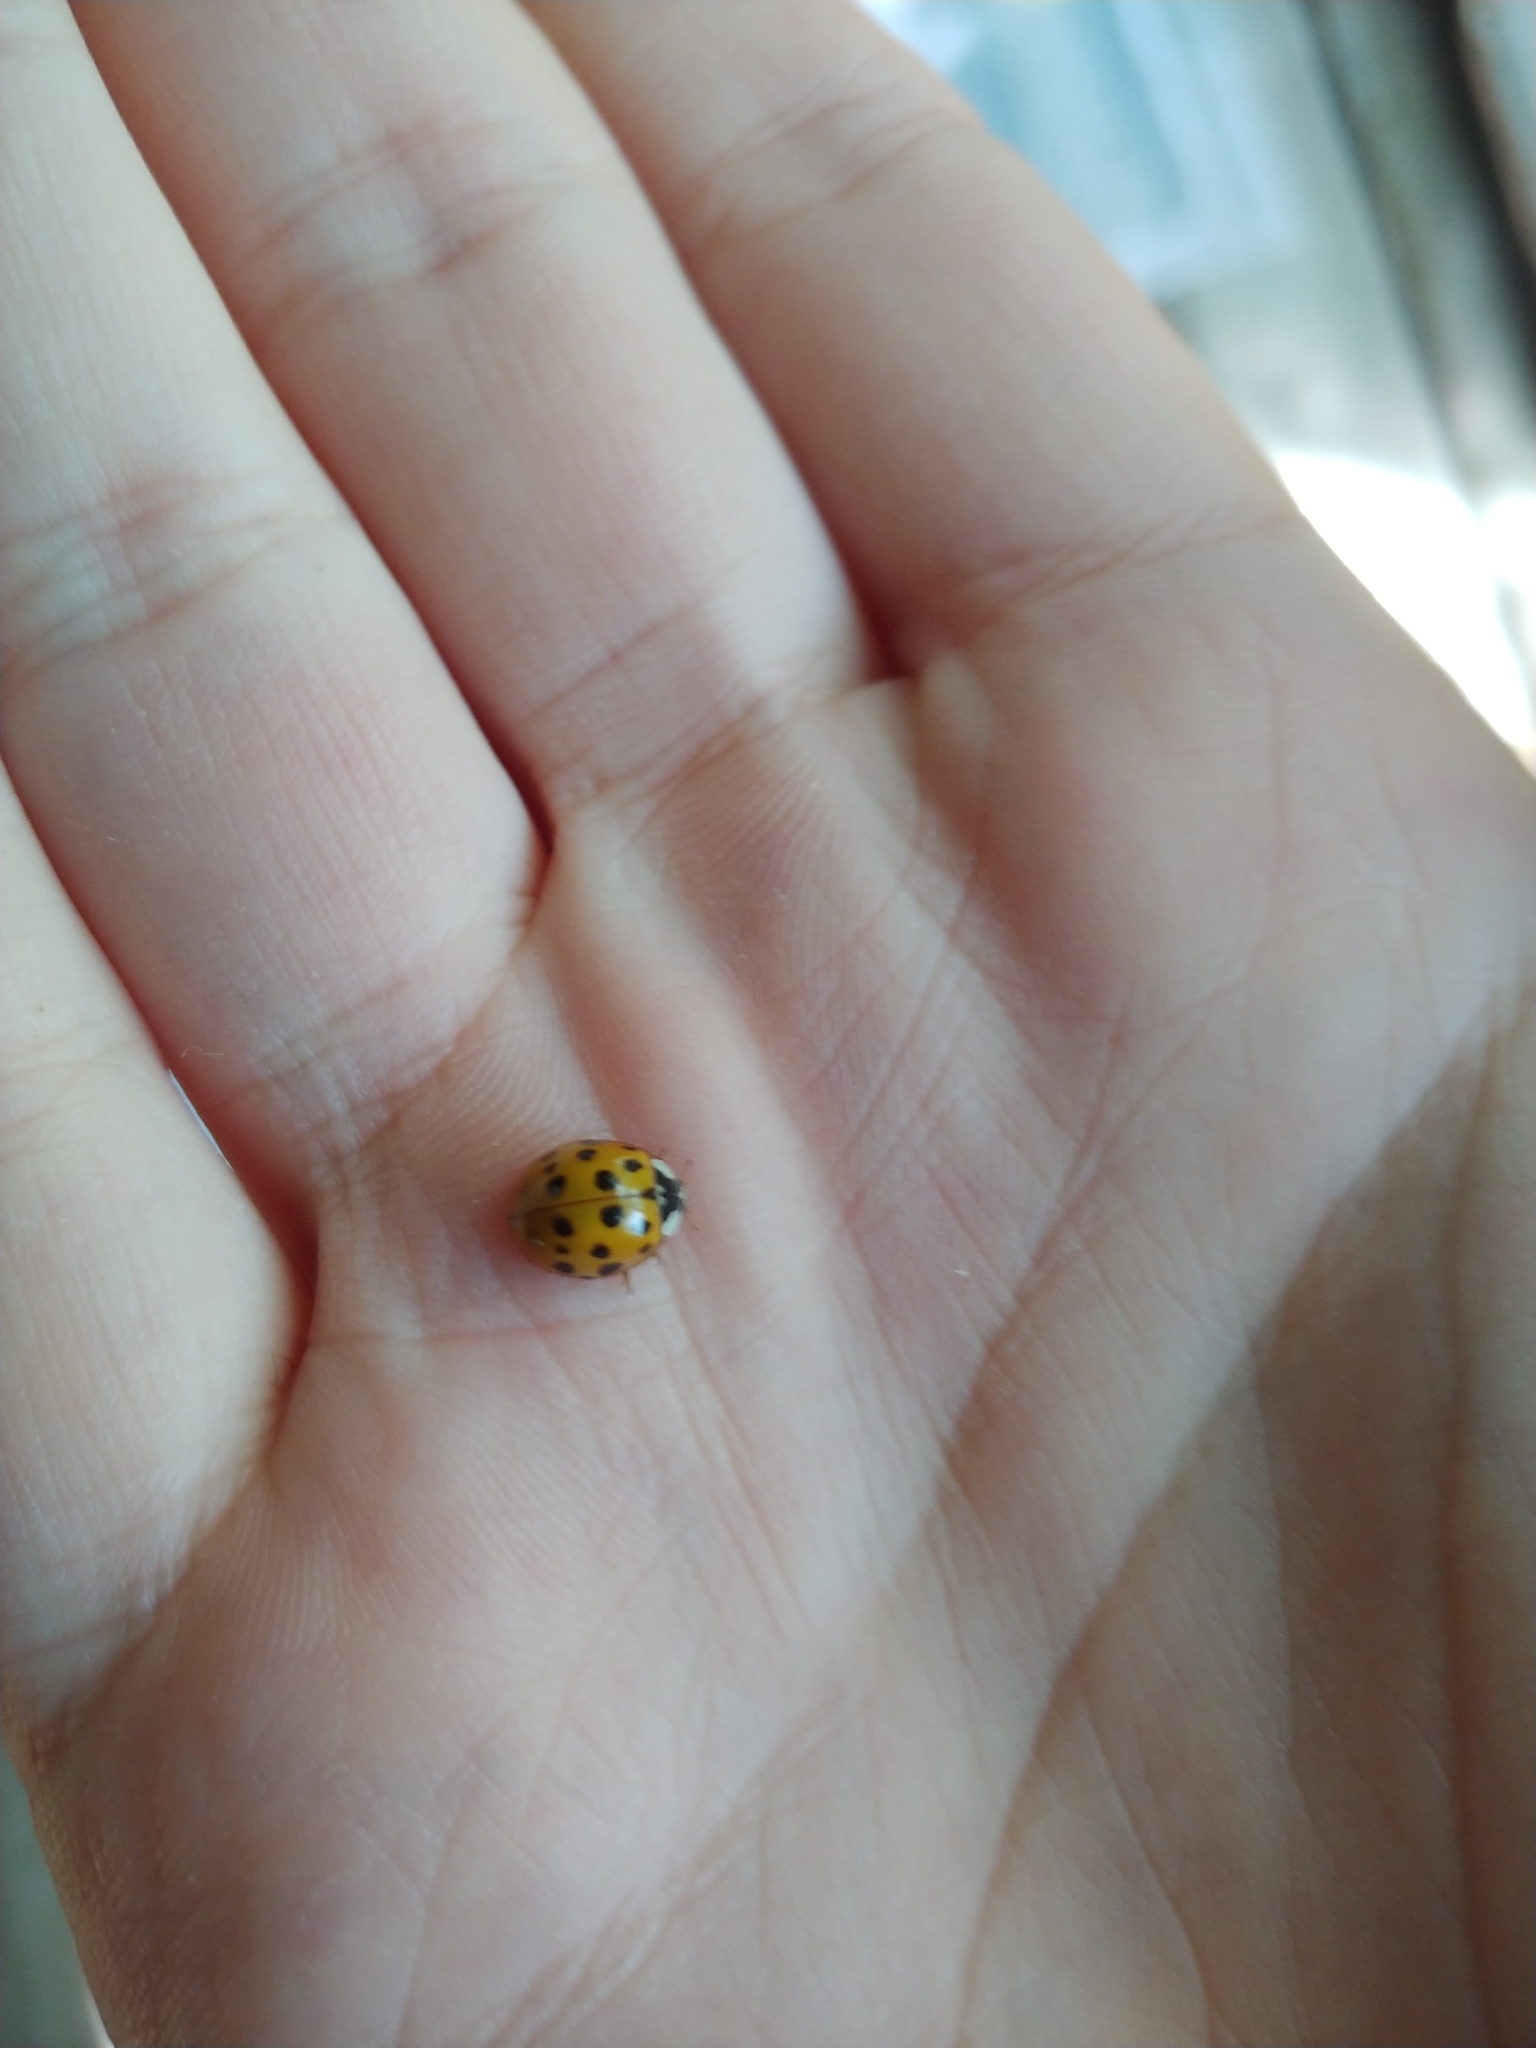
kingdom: Animalia
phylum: Arthropoda
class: Insecta
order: Coleoptera
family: Coccinellidae
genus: Harmonia
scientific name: Harmonia axyridis
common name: Harlequin ladybird
